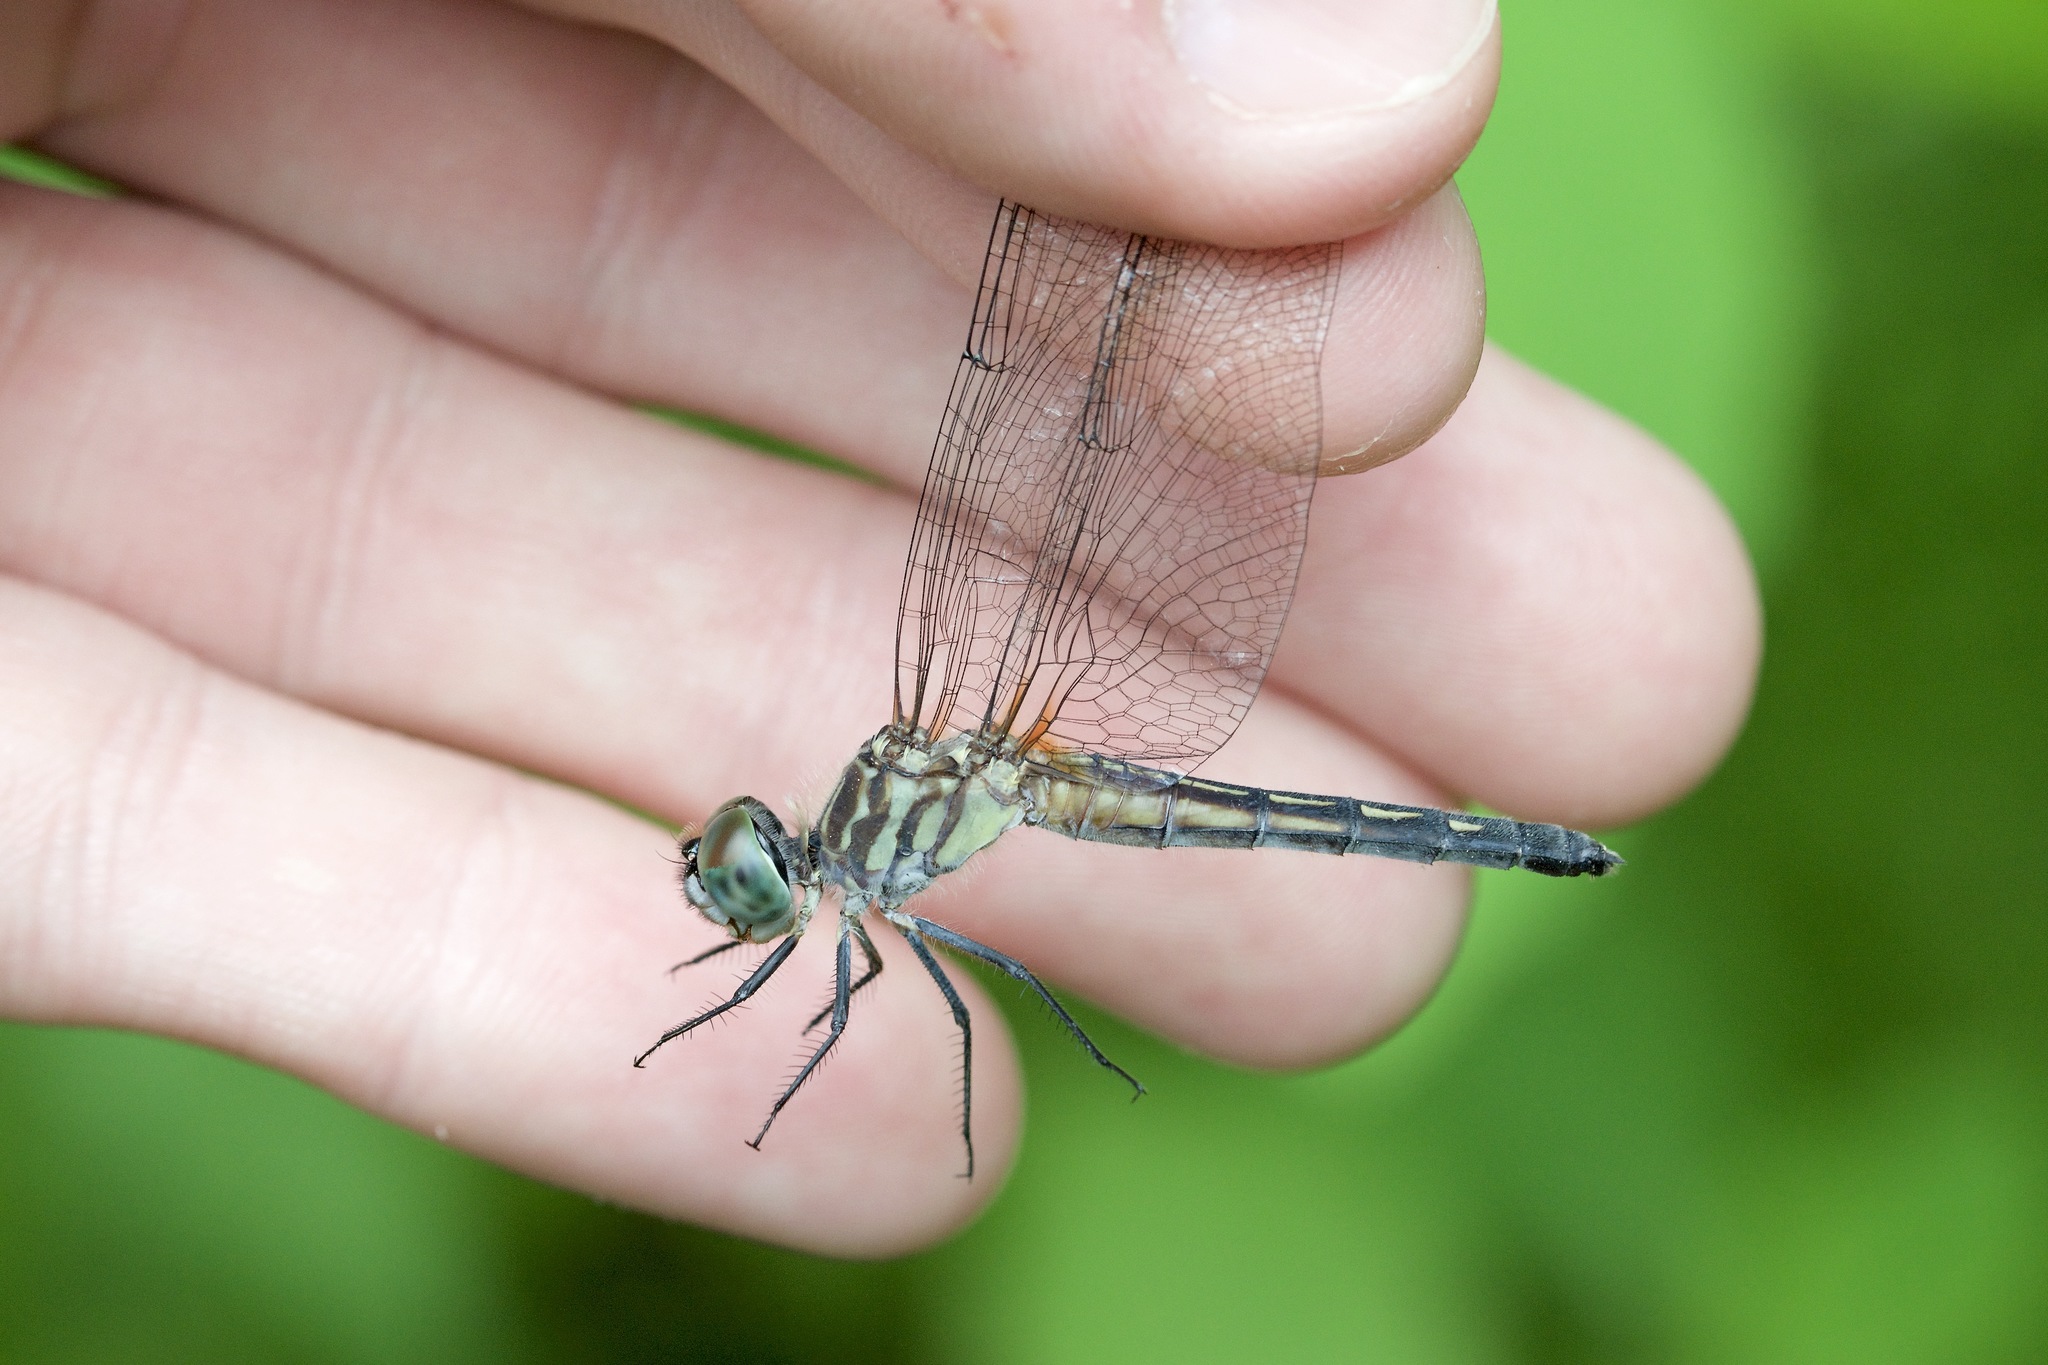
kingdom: Animalia
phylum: Arthropoda
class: Insecta
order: Odonata
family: Libellulidae
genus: Pachydiplax
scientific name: Pachydiplax longipennis
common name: Blue dasher
